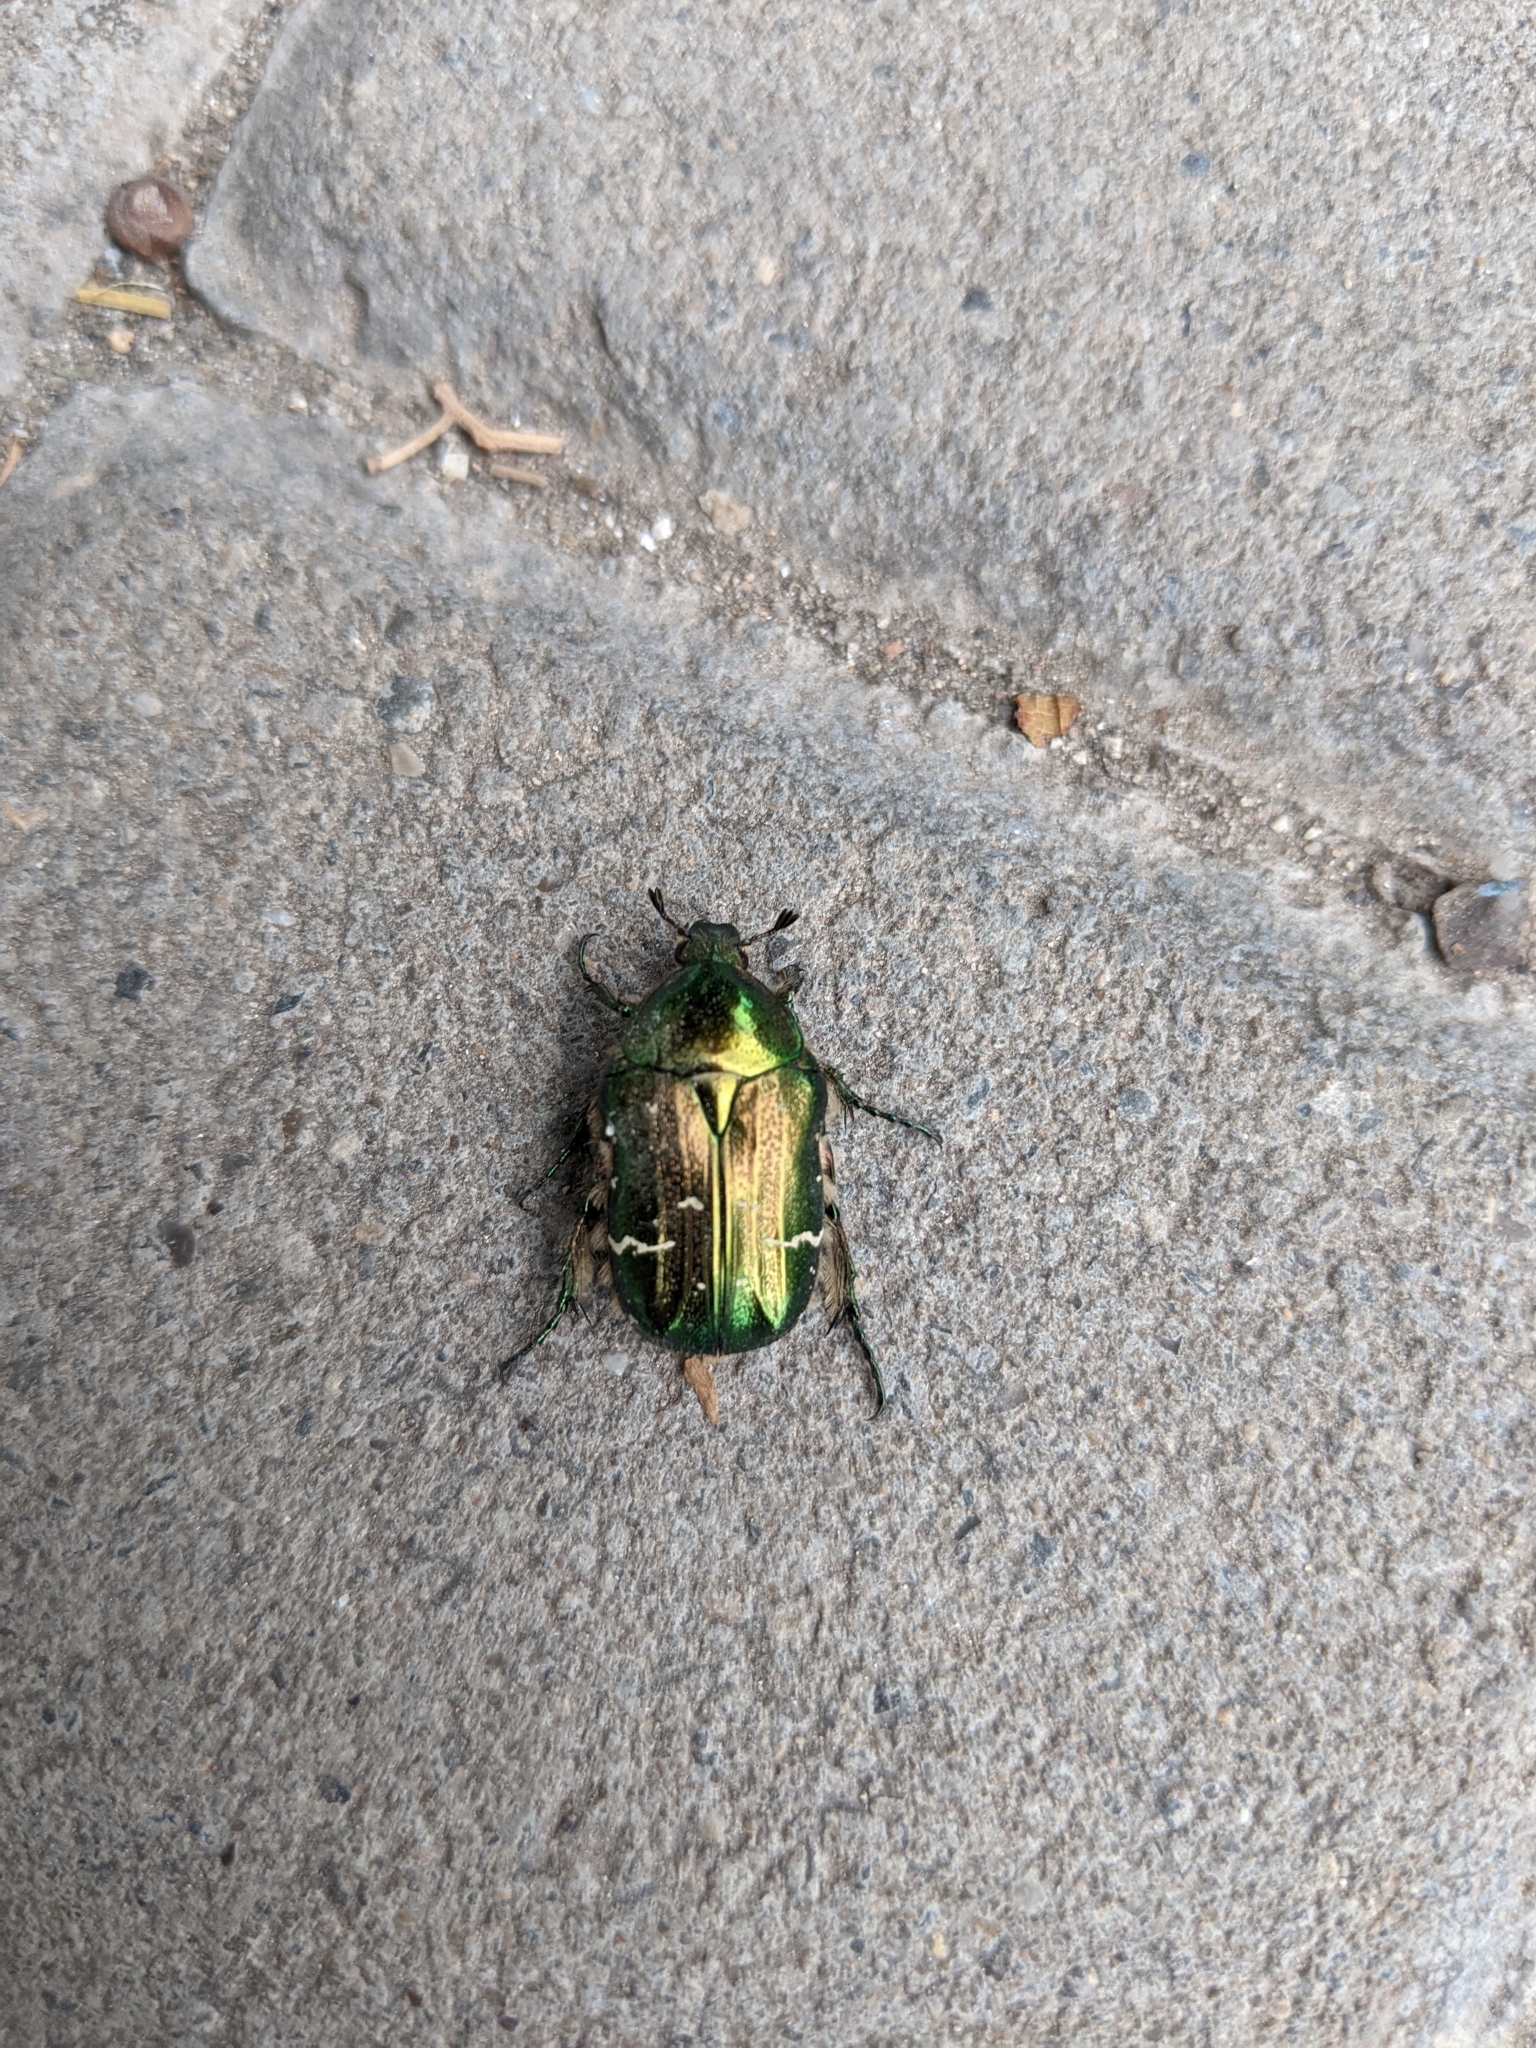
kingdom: Animalia
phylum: Arthropoda
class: Insecta
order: Coleoptera
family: Scarabaeidae
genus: Cetonia
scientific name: Cetonia aurata
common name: Rose chafer
